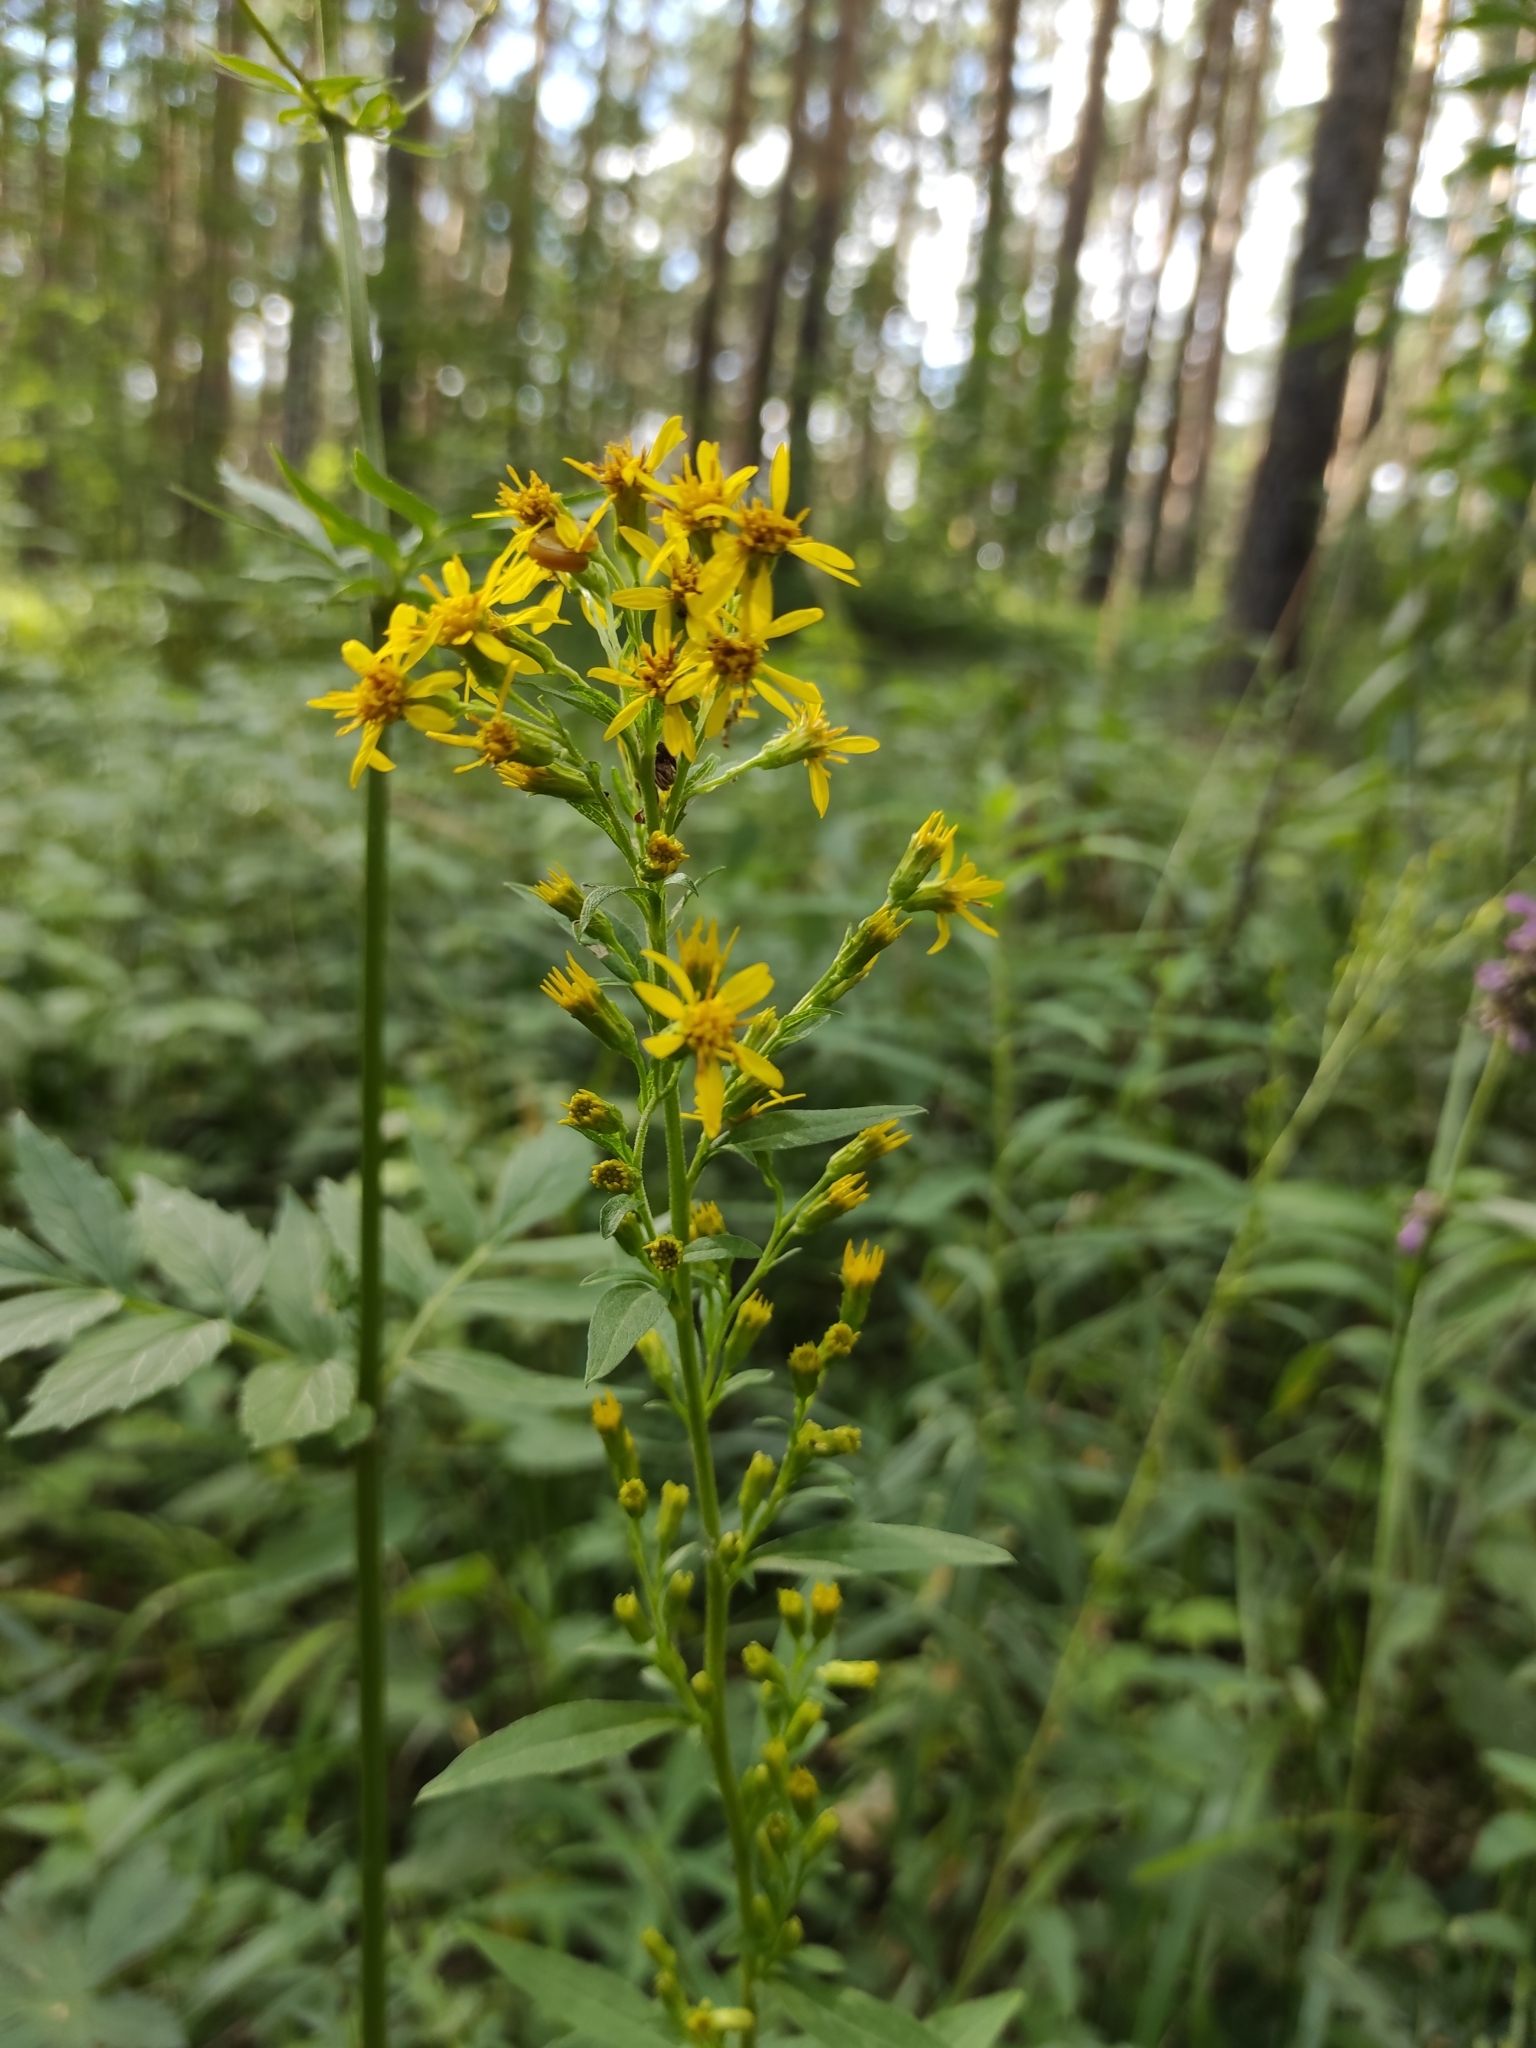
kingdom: Plantae
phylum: Tracheophyta
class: Magnoliopsida
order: Asterales
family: Asteraceae
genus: Solidago
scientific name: Solidago virgaurea
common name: Goldenrod
